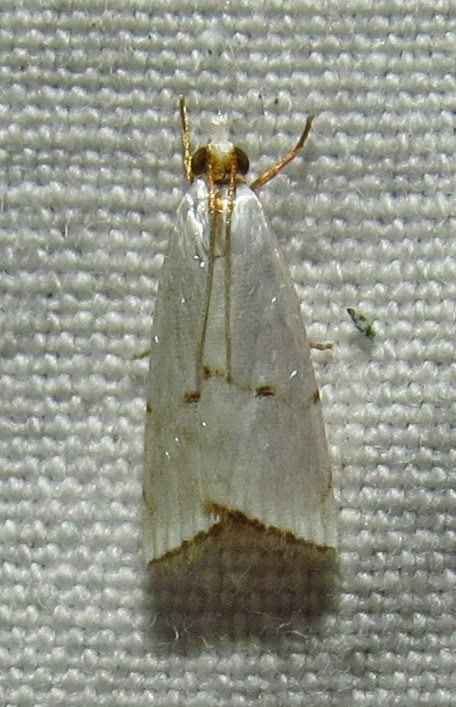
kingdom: Animalia
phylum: Arthropoda
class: Insecta
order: Lepidoptera
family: Crambidae
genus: Argyria
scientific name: Argyria pusillalis
